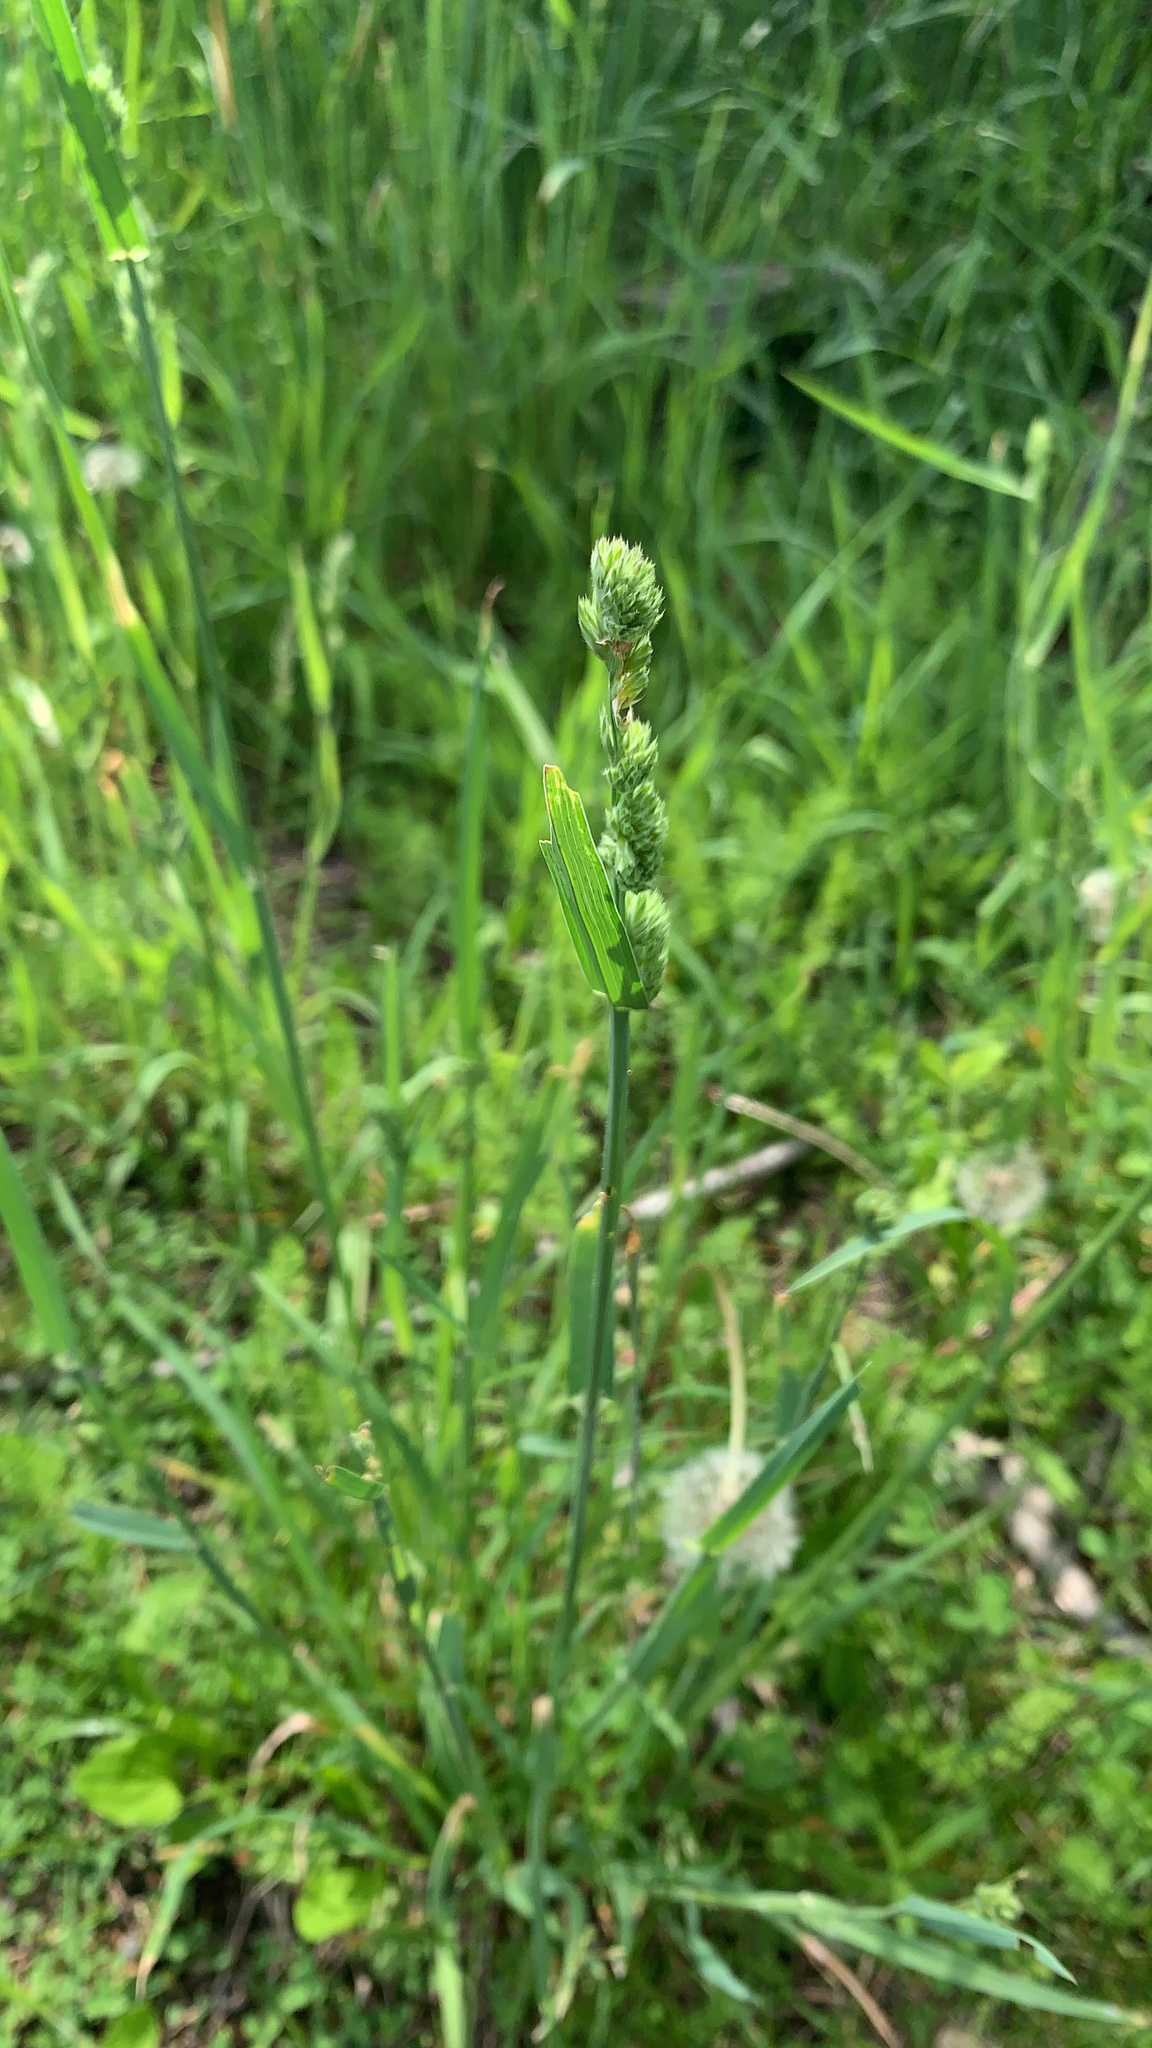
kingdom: Plantae
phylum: Tracheophyta
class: Liliopsida
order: Poales
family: Poaceae
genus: Dactylis
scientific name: Dactylis glomerata
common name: Orchardgrass
